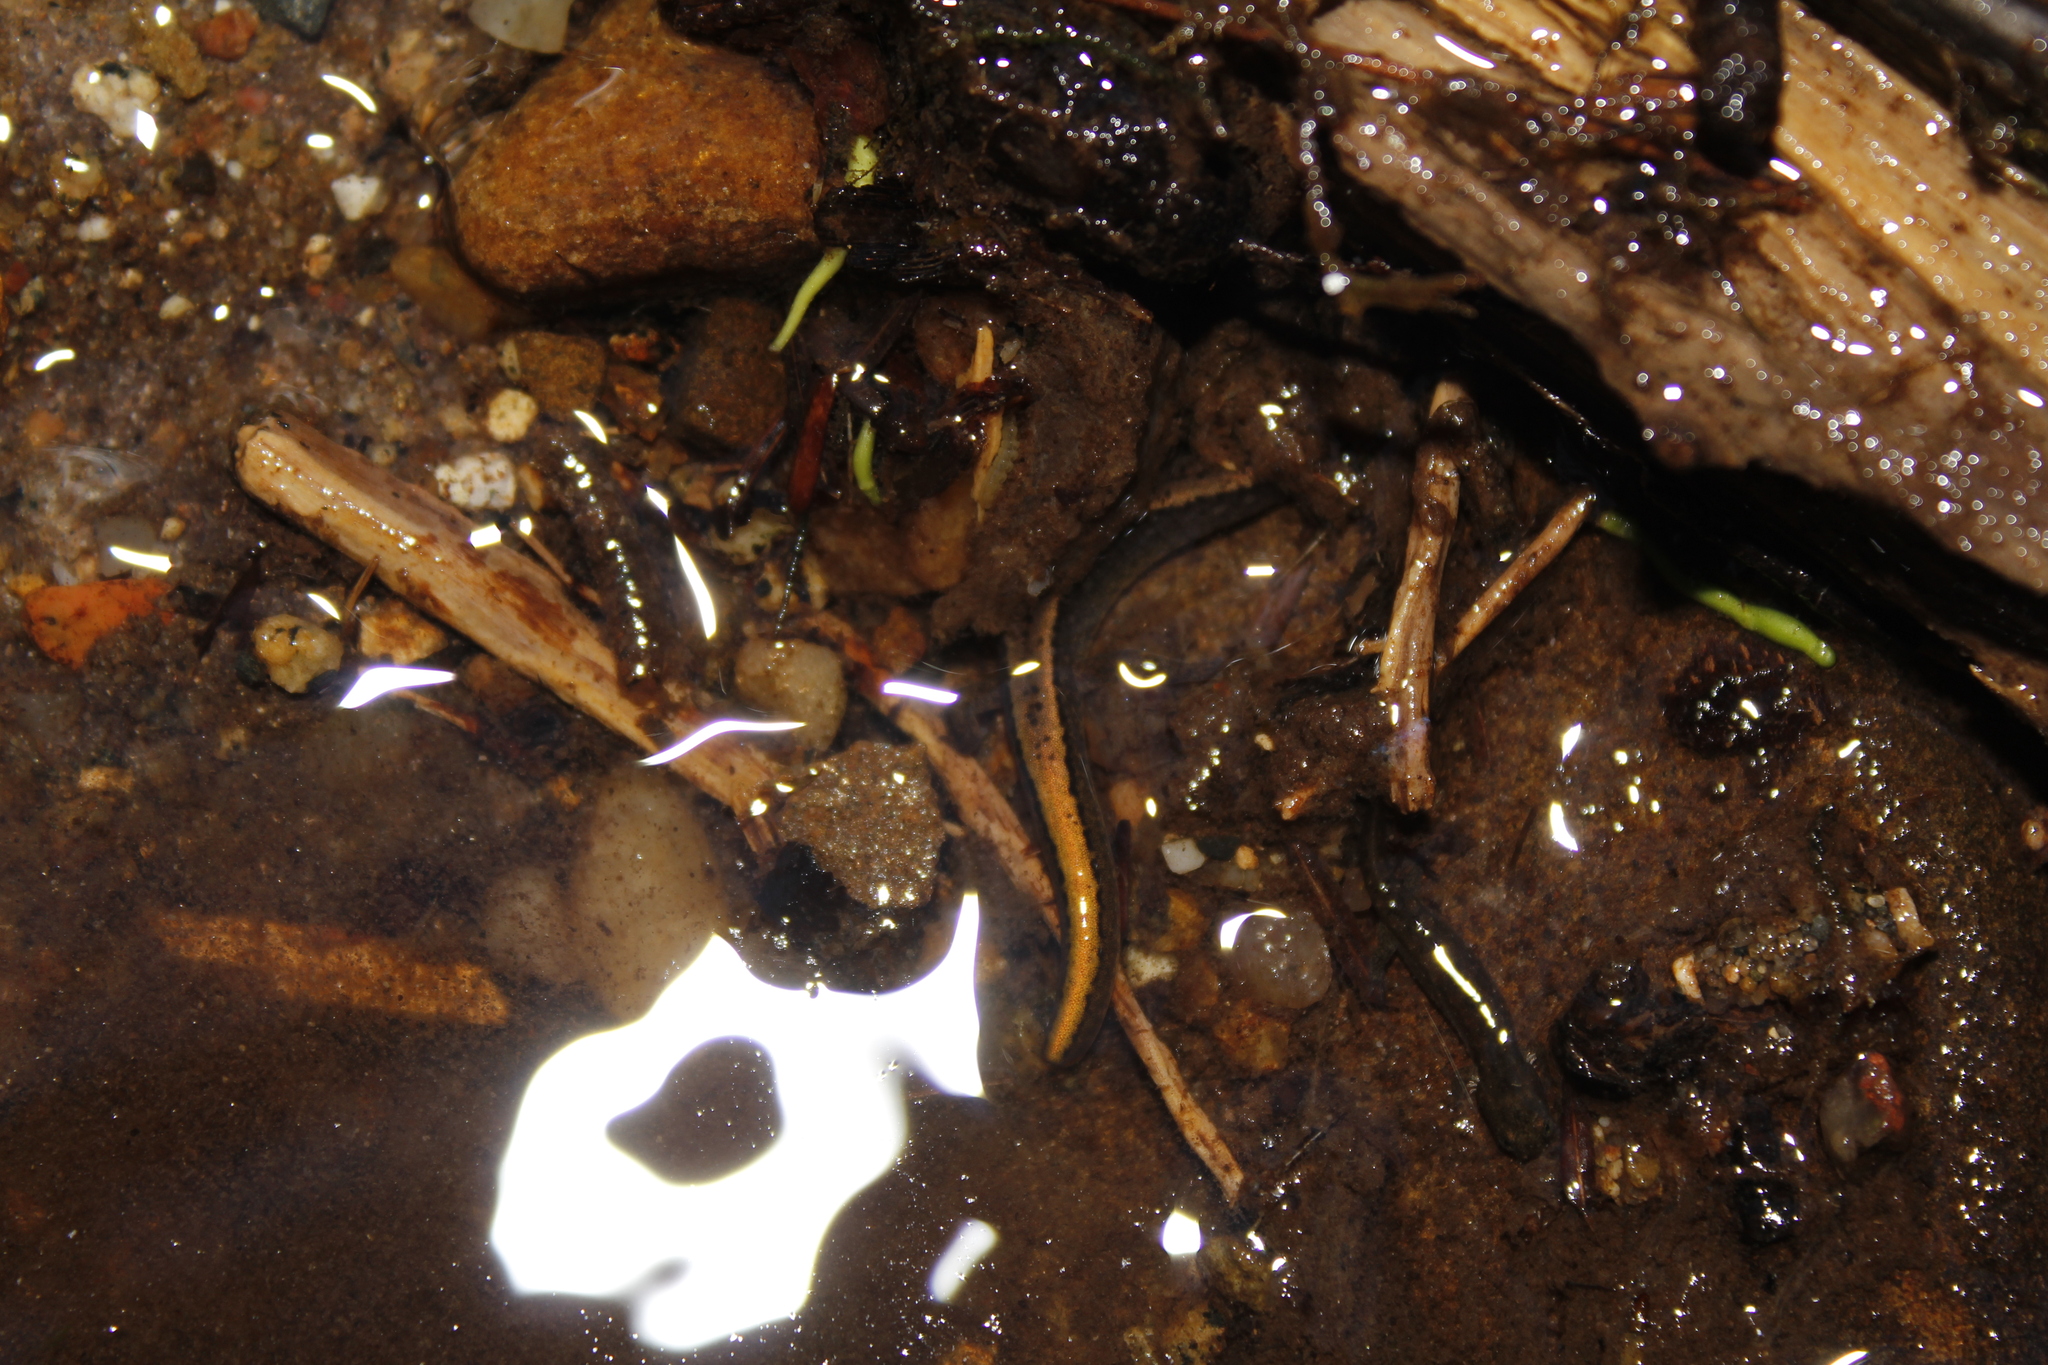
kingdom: Animalia
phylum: Chordata
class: Amphibia
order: Caudata
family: Plethodontidae
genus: Eurycea
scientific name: Eurycea bislineata
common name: Northern two-lined salamander
